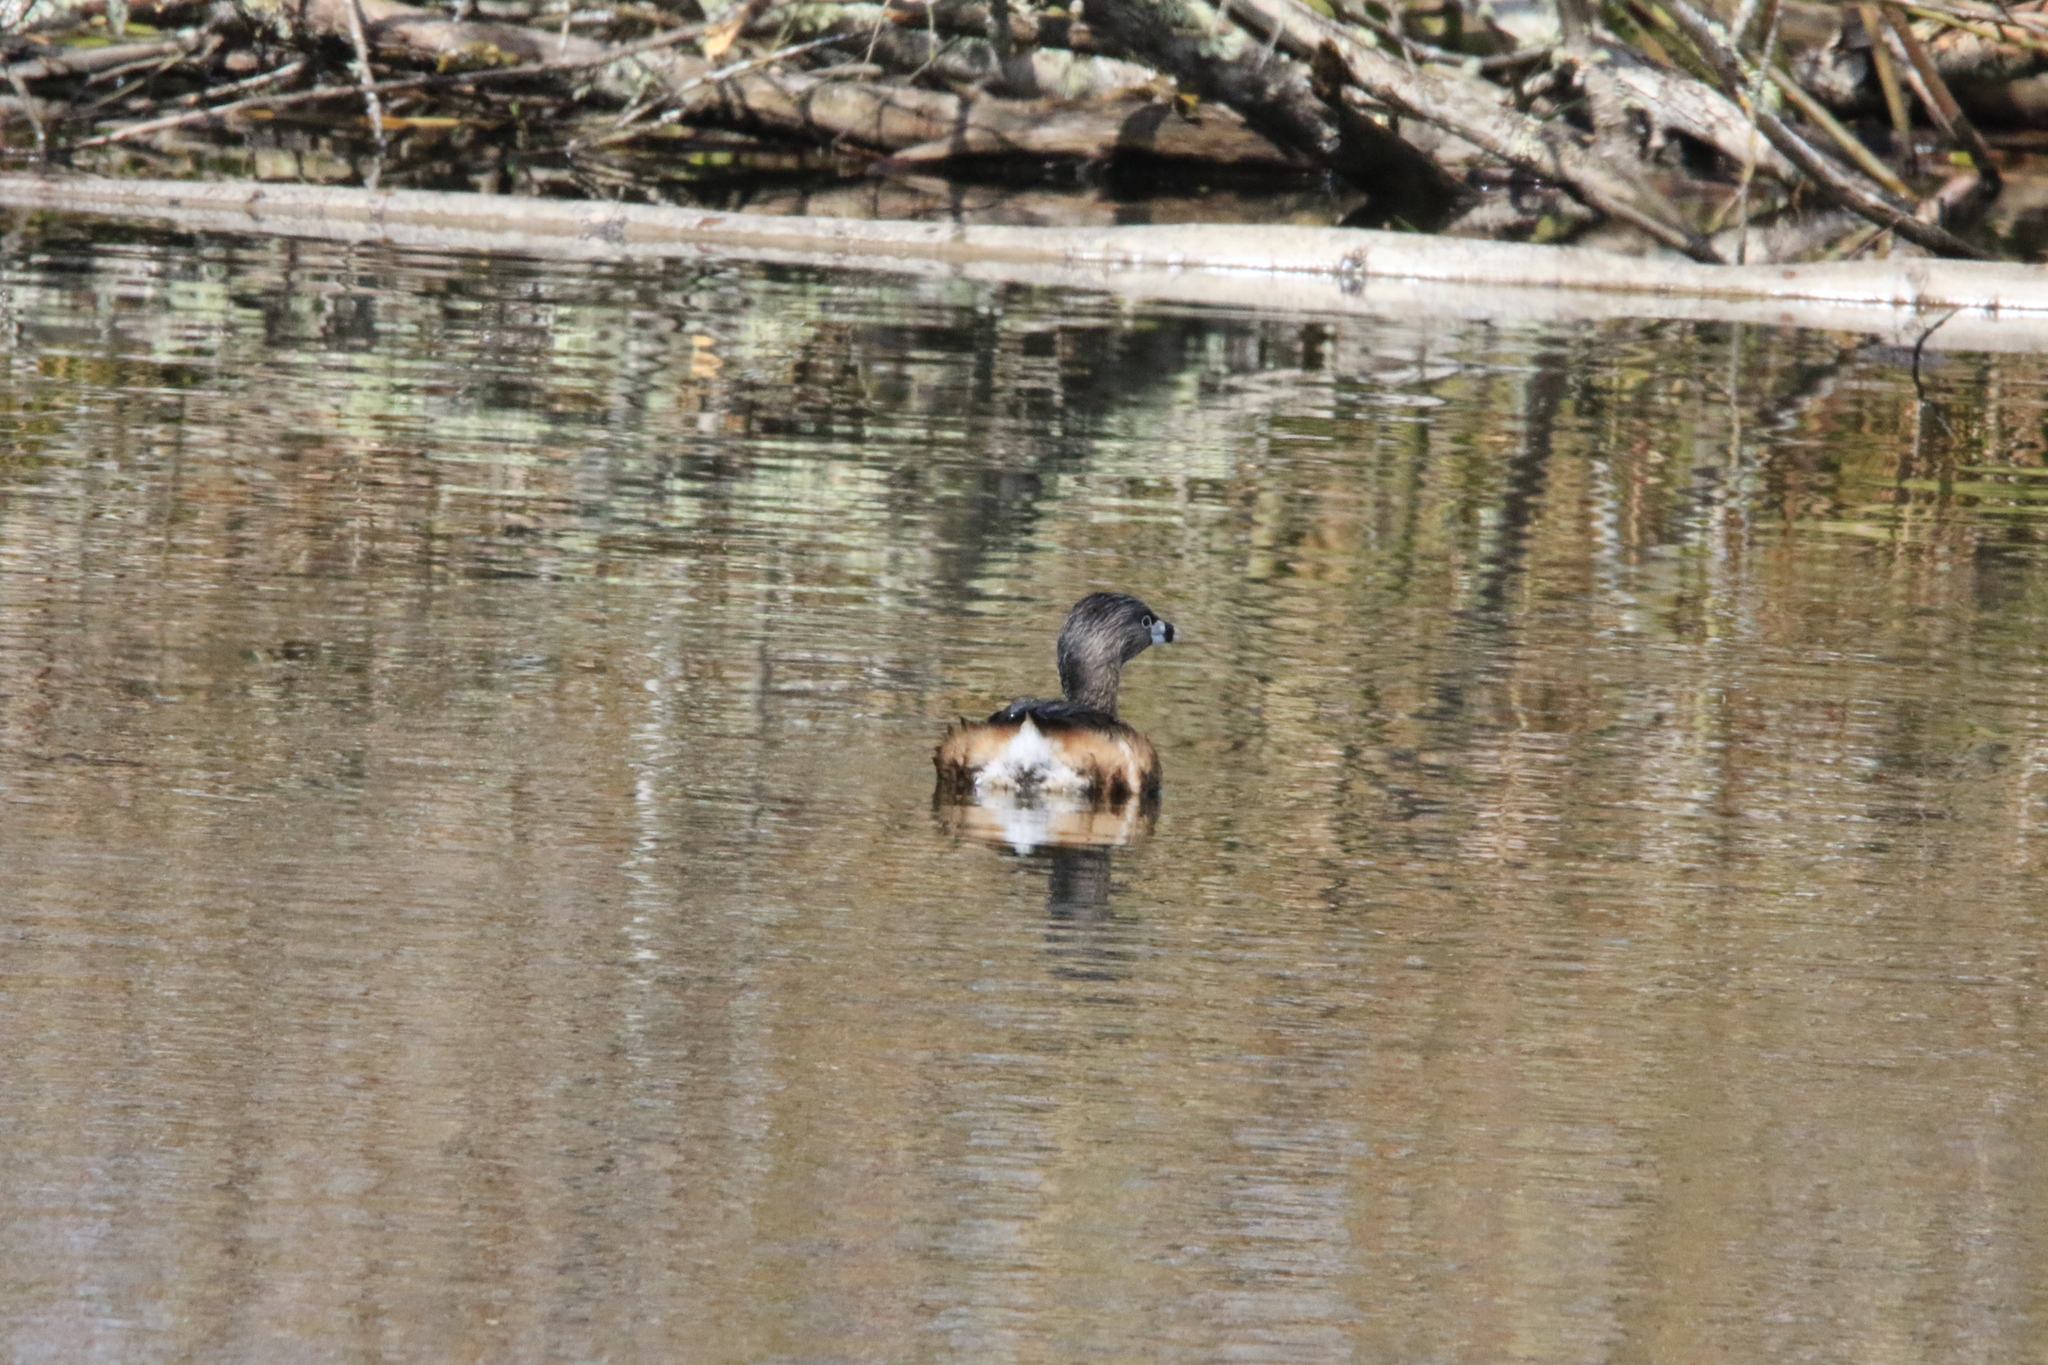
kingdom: Animalia
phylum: Chordata
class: Aves
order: Podicipediformes
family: Podicipedidae
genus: Podilymbus
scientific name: Podilymbus podiceps
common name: Pied-billed grebe
